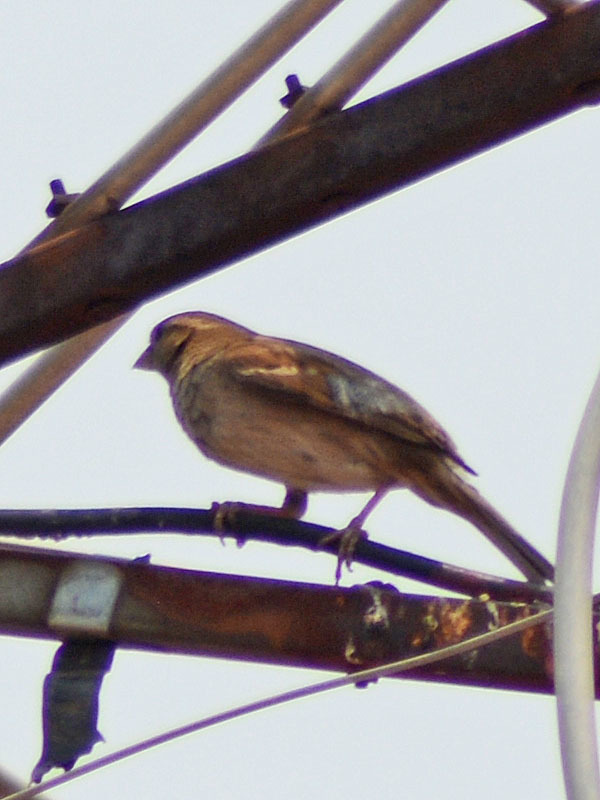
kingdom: Animalia
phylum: Chordata
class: Aves
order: Passeriformes
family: Passeridae
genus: Passer
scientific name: Passer domesticus
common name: House sparrow
